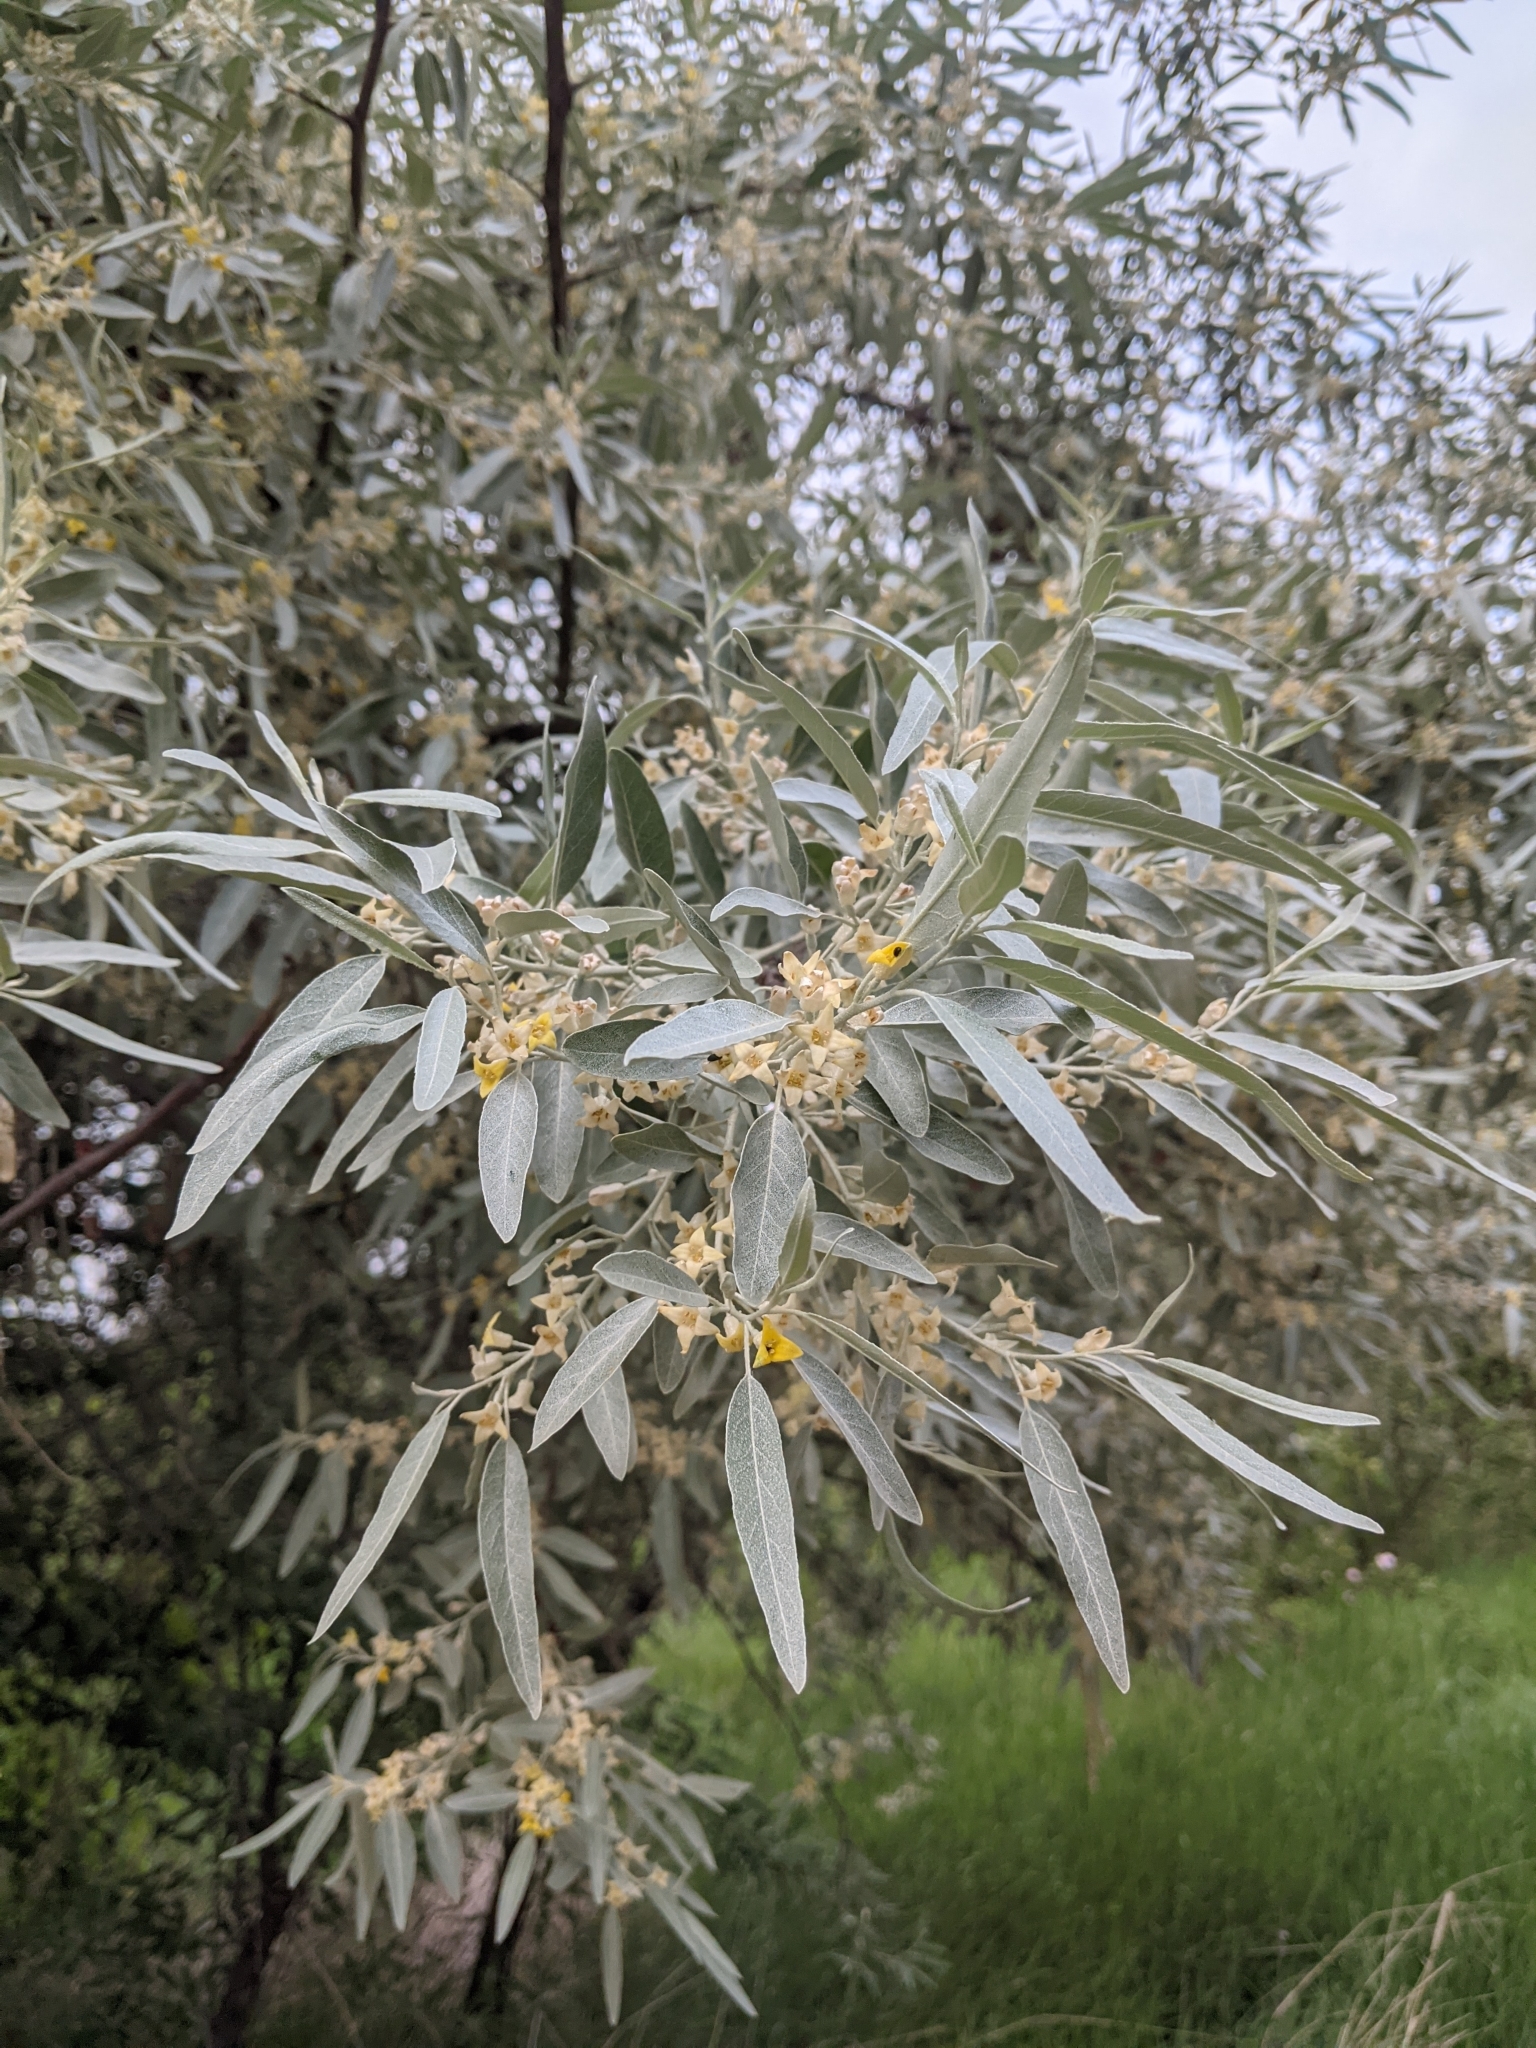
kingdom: Plantae
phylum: Tracheophyta
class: Magnoliopsida
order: Rosales
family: Elaeagnaceae
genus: Elaeagnus
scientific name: Elaeagnus angustifolia
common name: Russian olive
